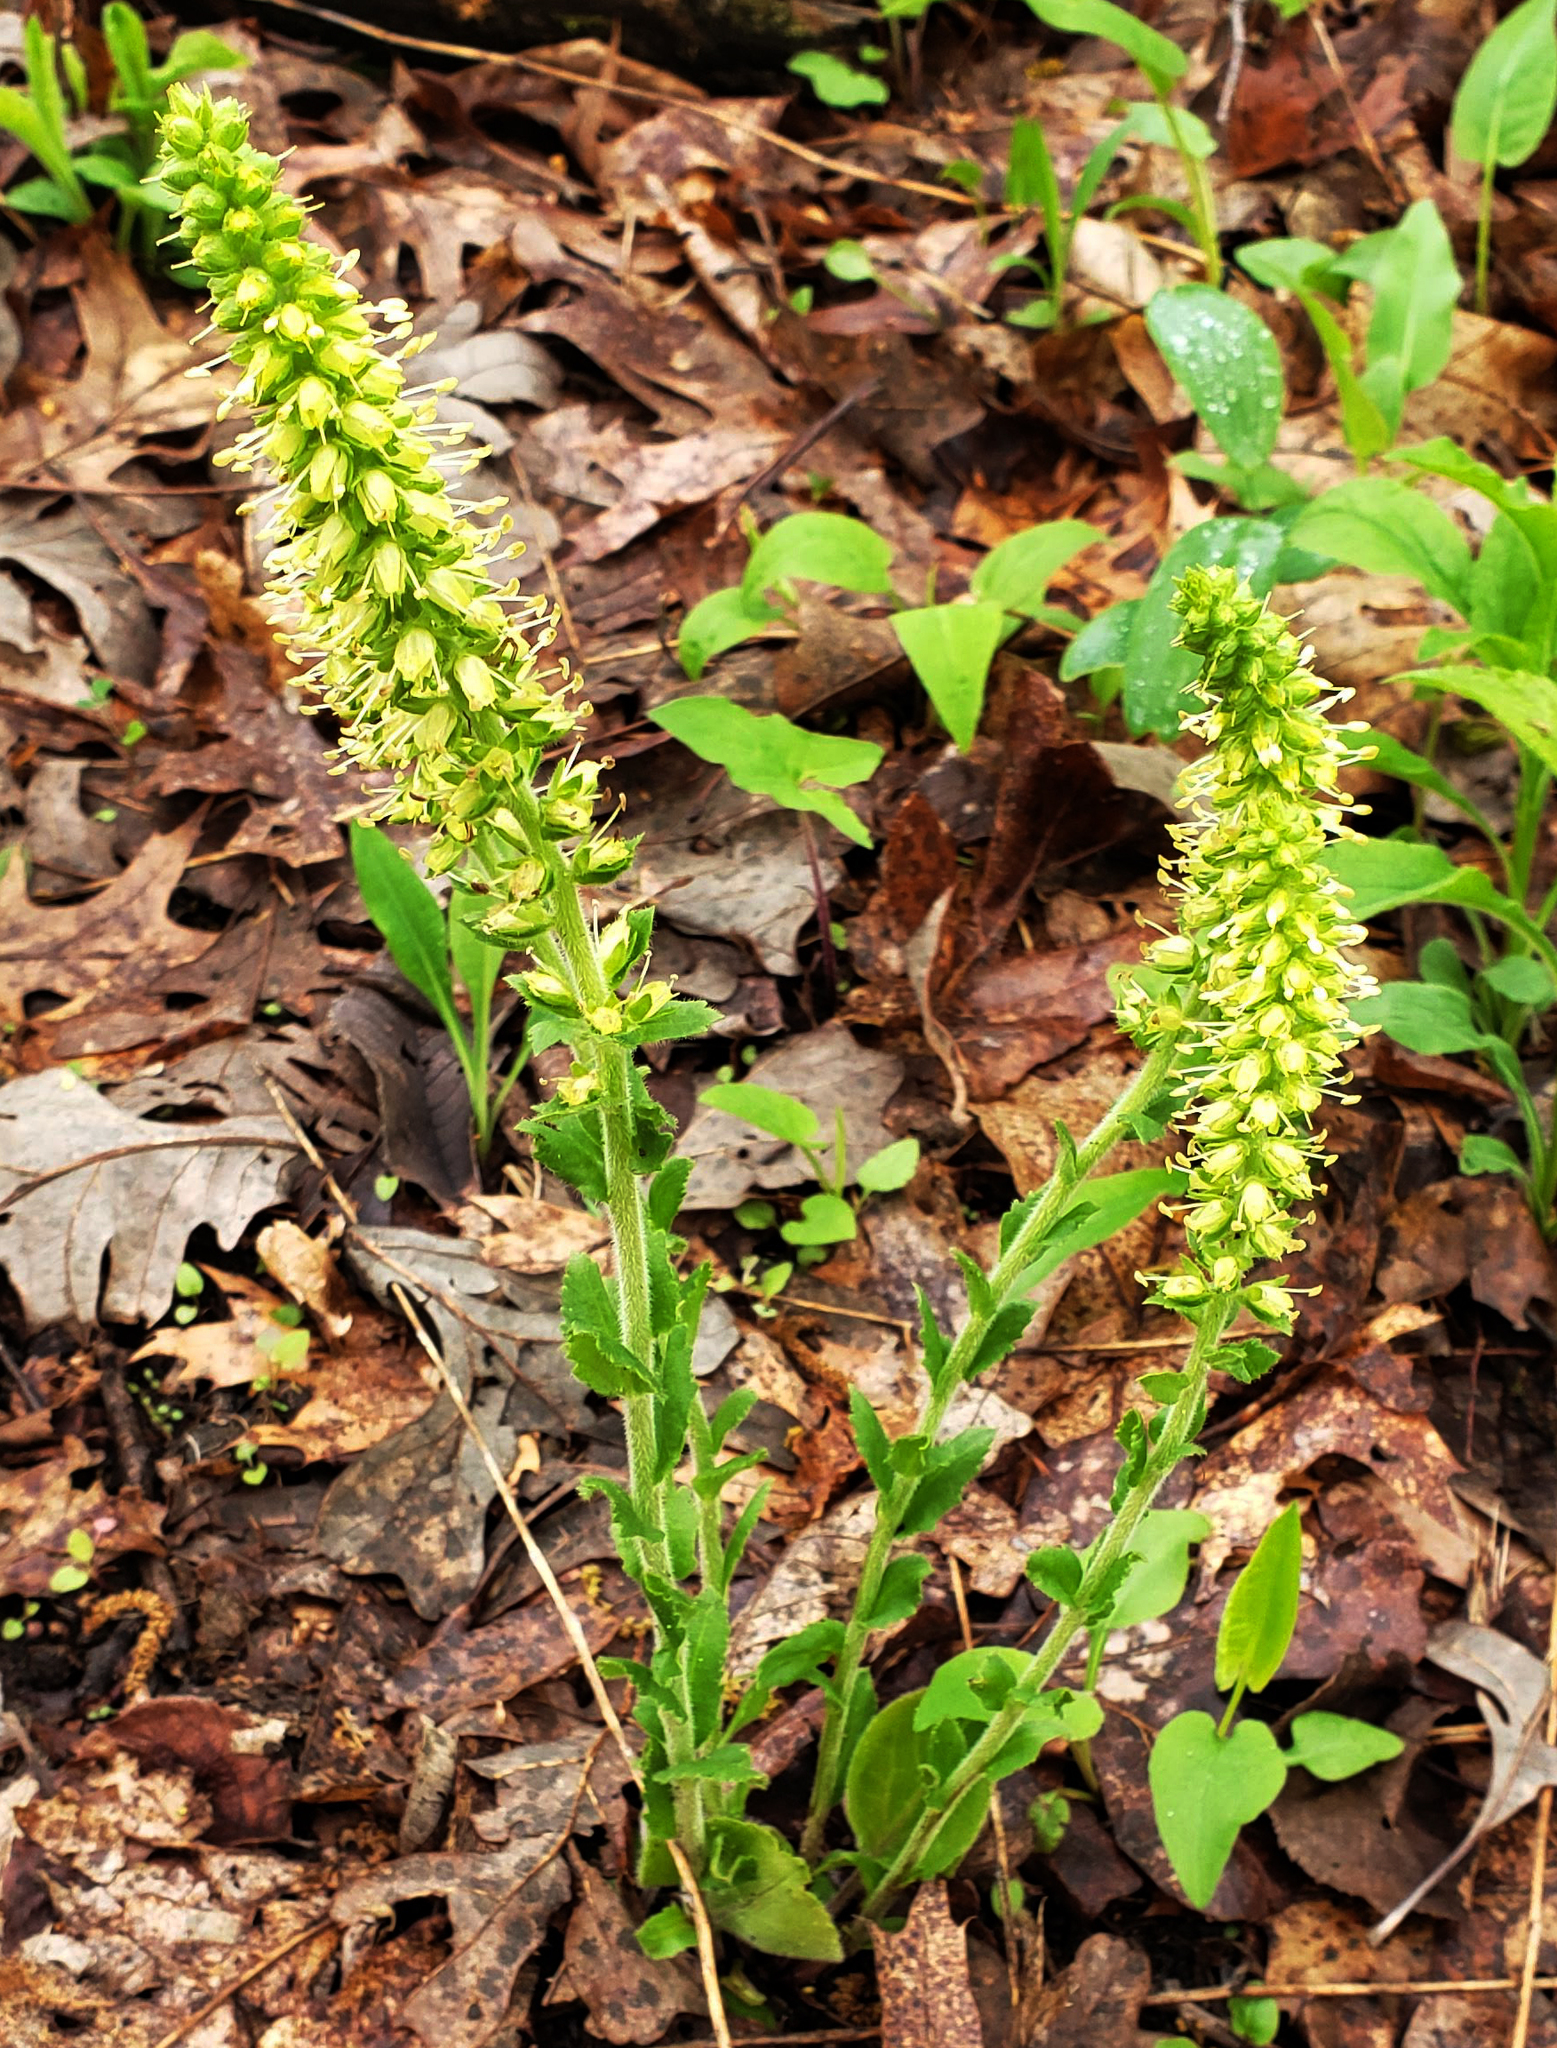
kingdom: Plantae
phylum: Tracheophyta
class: Magnoliopsida
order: Lamiales
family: Plantaginaceae
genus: Synthyris
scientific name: Synthyris bullii
